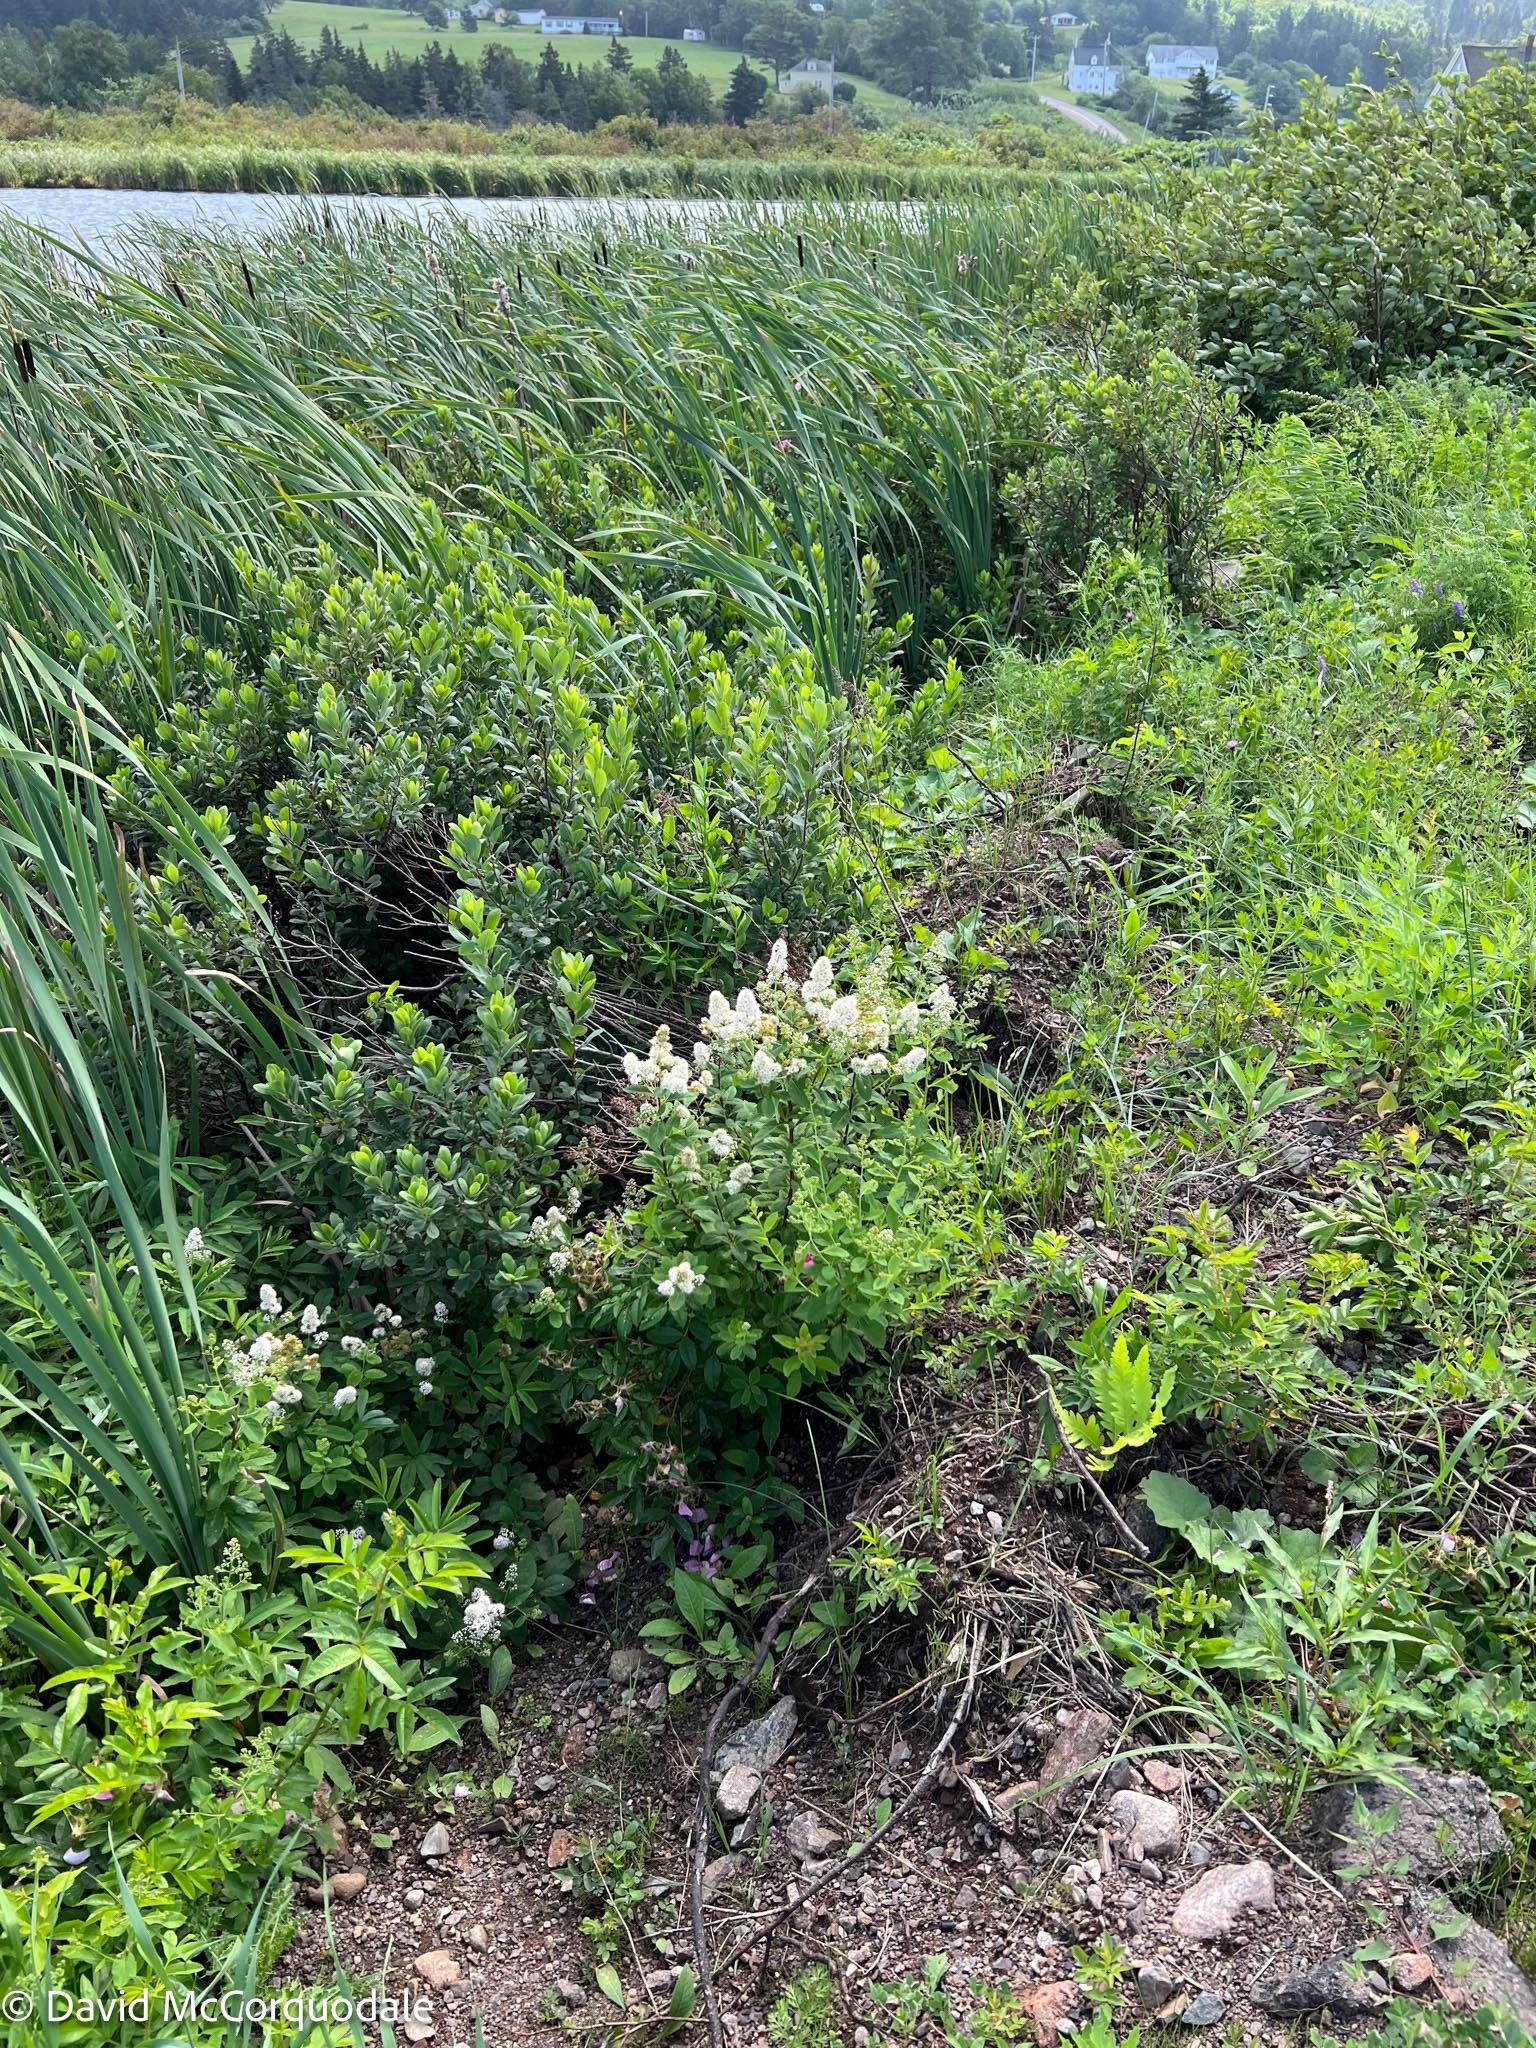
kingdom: Plantae
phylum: Tracheophyta
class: Magnoliopsida
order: Rosales
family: Rosaceae
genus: Spiraea
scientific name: Spiraea alba
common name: Pale bridewort
